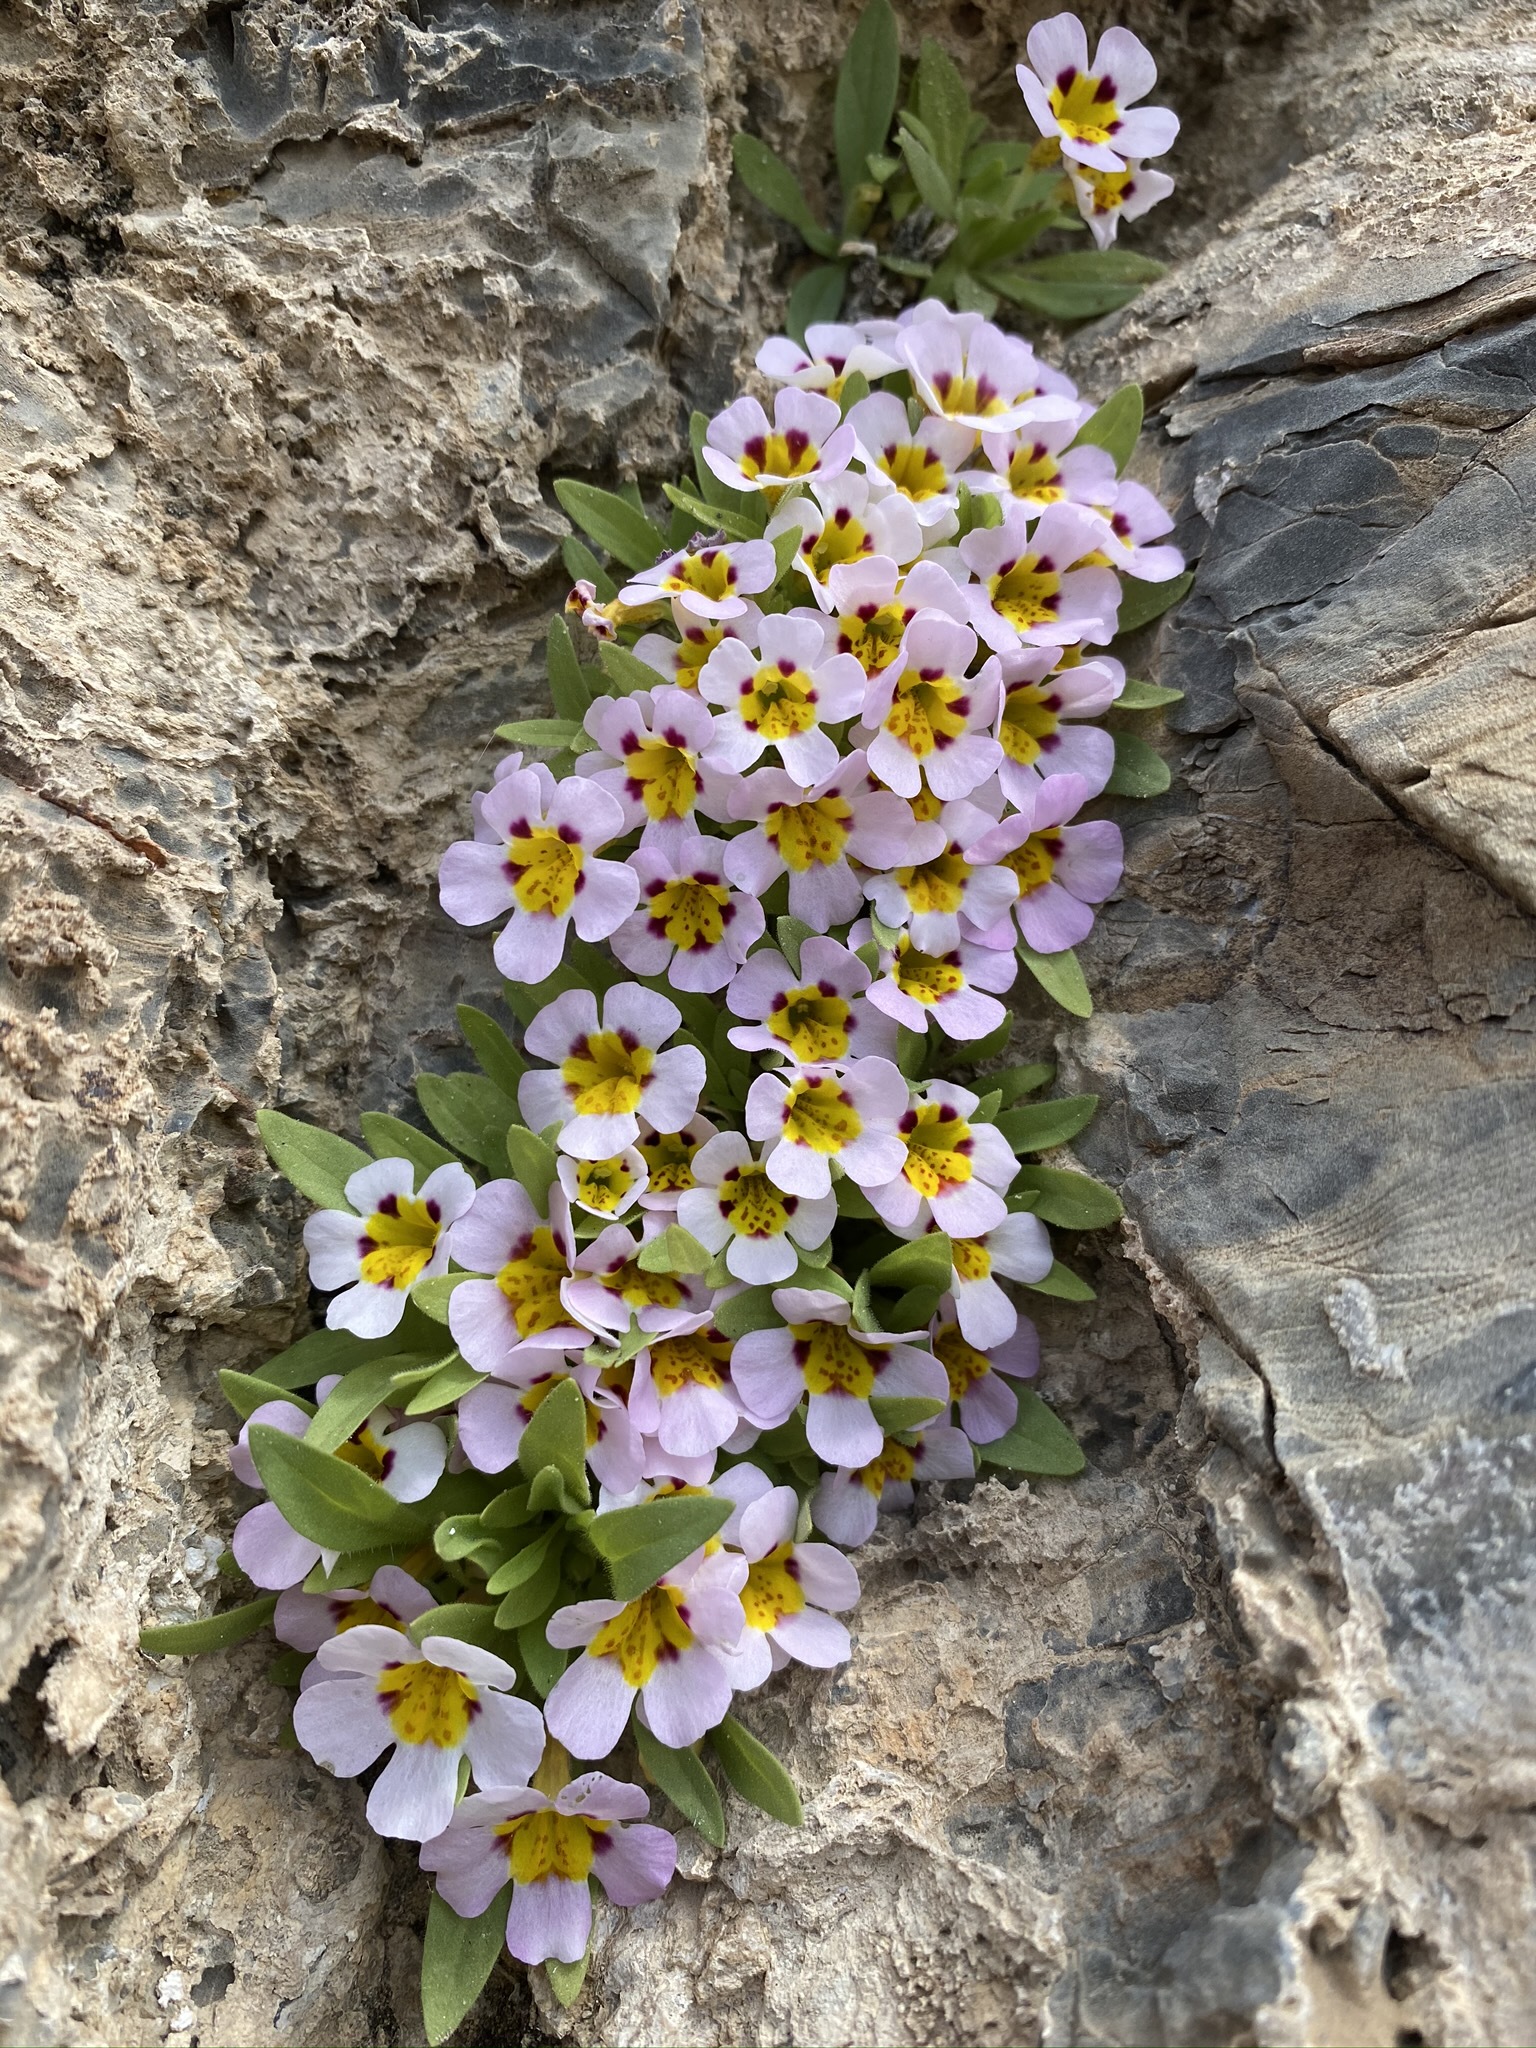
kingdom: Plantae
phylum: Tracheophyta
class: Magnoliopsida
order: Lamiales
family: Phrymaceae
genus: Diplacus
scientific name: Diplacus rupicola
